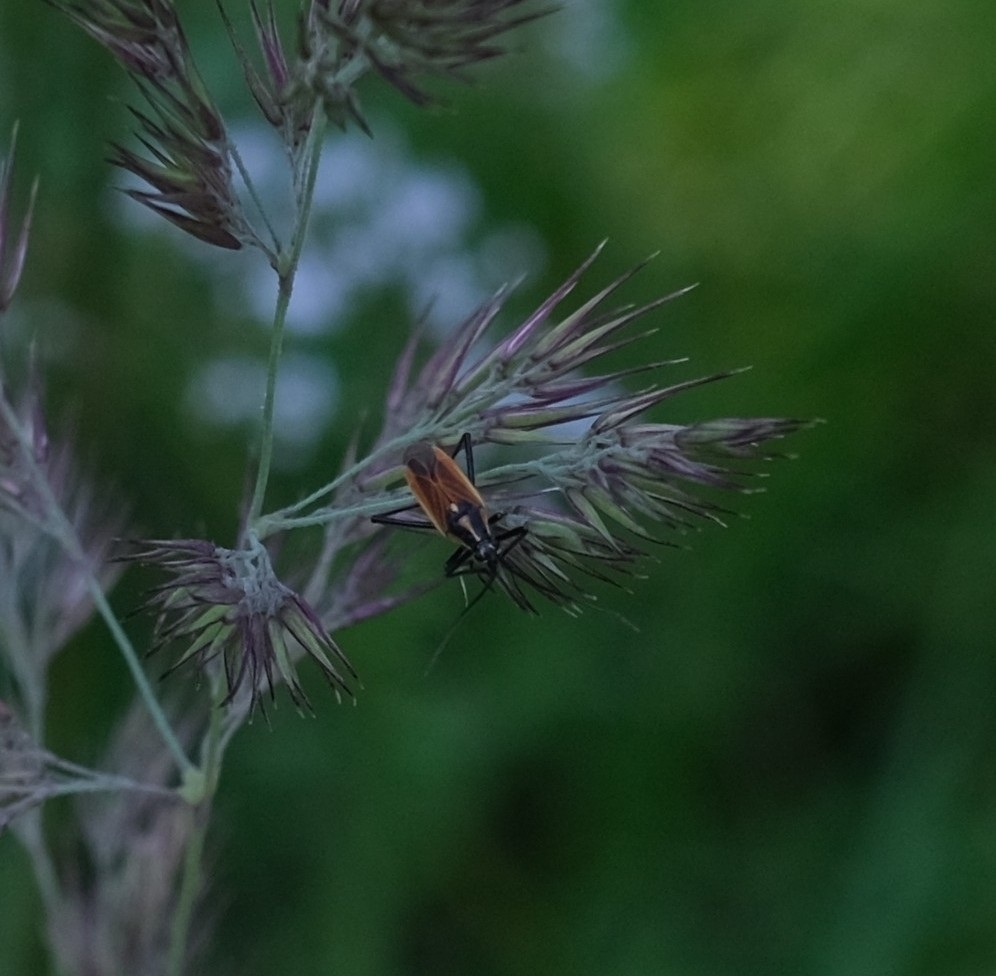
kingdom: Animalia
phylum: Arthropoda
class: Insecta
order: Hemiptera
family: Miridae
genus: Leptopterna
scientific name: Leptopterna dolabrata
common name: Meadow plant bug
